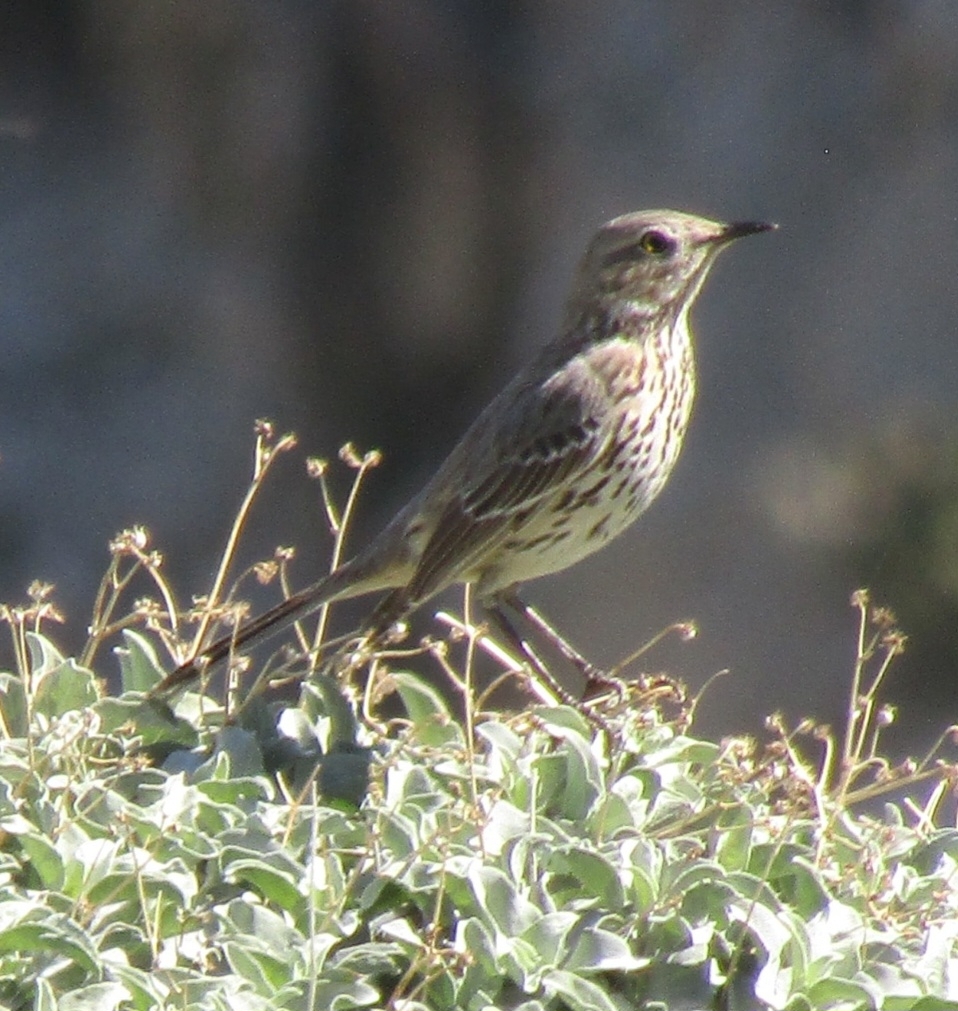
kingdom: Animalia
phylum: Chordata
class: Aves
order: Passeriformes
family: Mimidae
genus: Oreoscoptes
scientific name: Oreoscoptes montanus
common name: Sage thrasher
